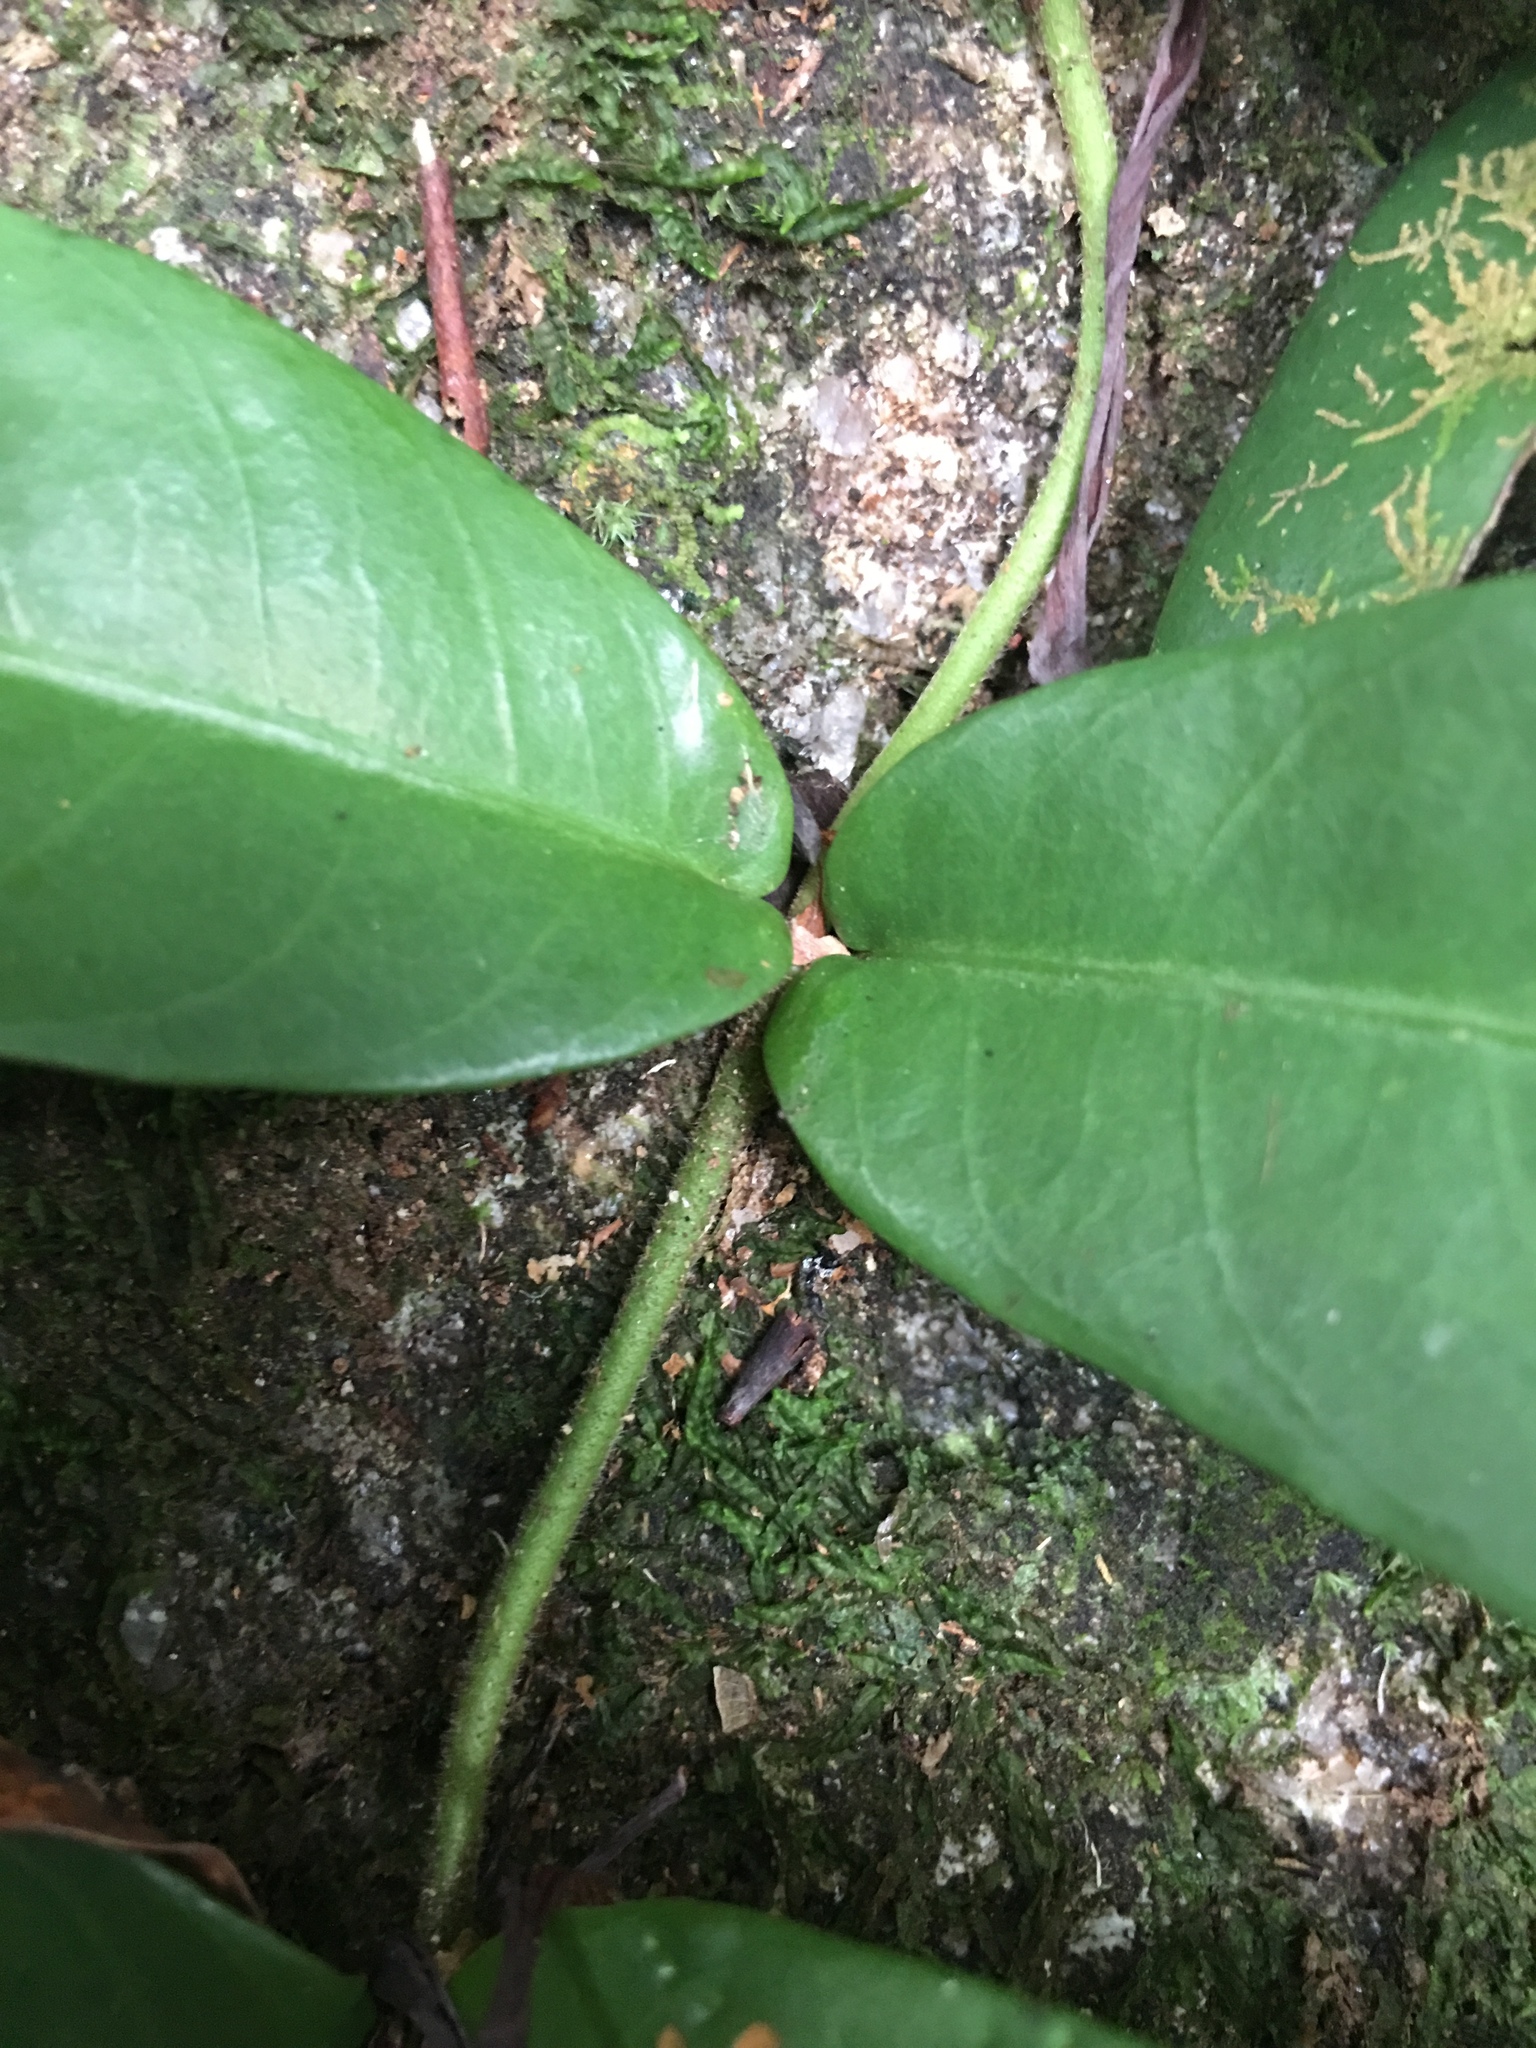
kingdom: Plantae
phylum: Tracheophyta
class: Magnoliopsida
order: Rosales
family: Moraceae
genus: Ficus
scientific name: Ficus recurva
